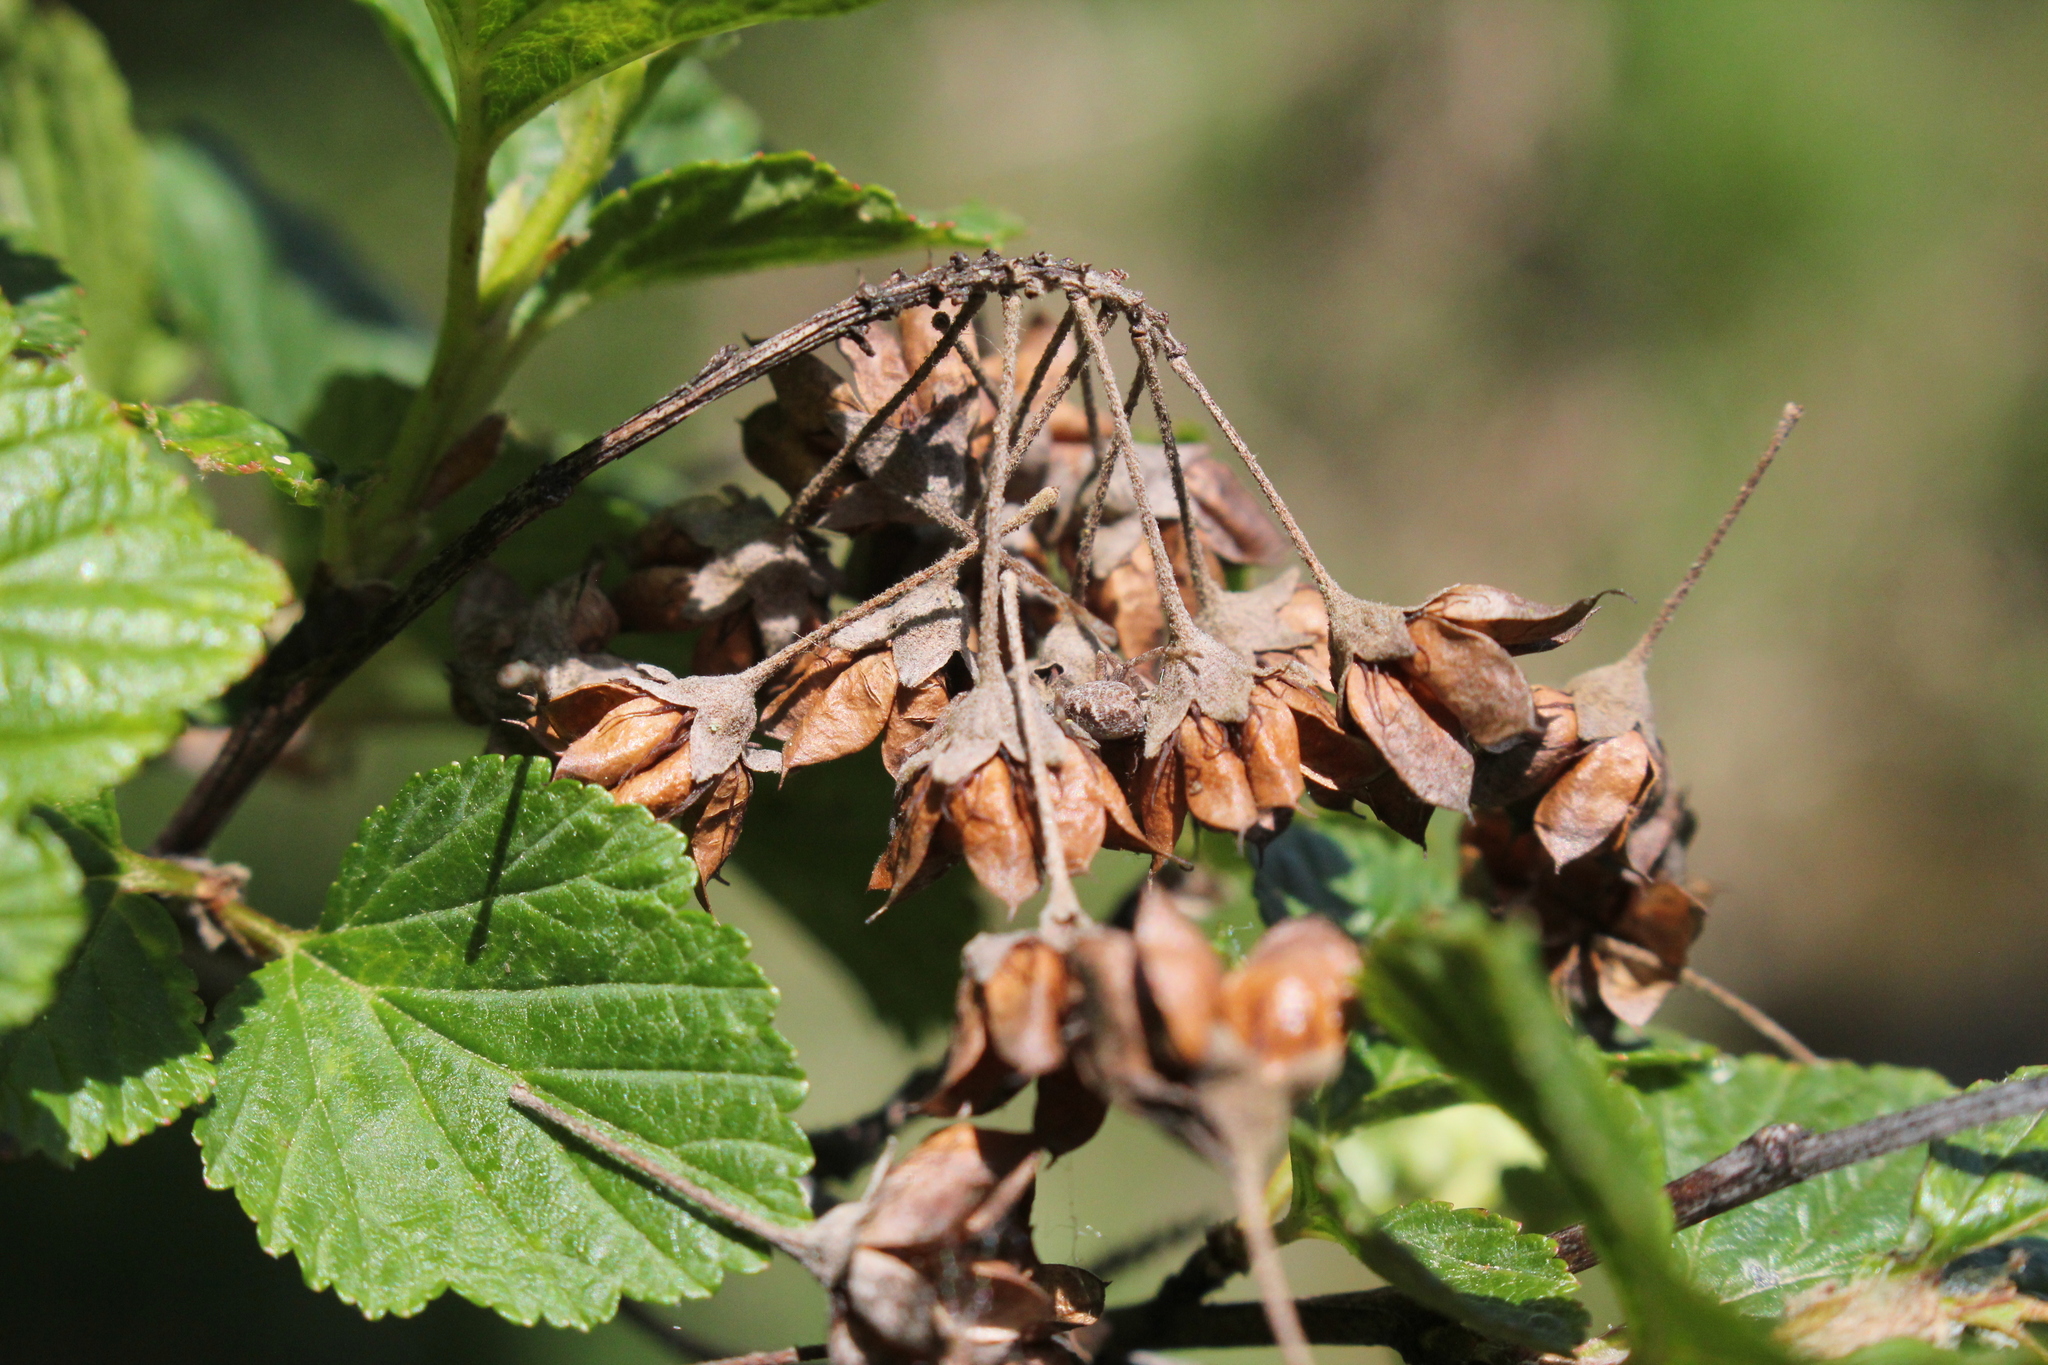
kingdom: Plantae
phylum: Tracheophyta
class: Magnoliopsida
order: Rosales
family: Rosaceae
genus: Physocarpus
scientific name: Physocarpus opulifolius
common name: Ninebark
